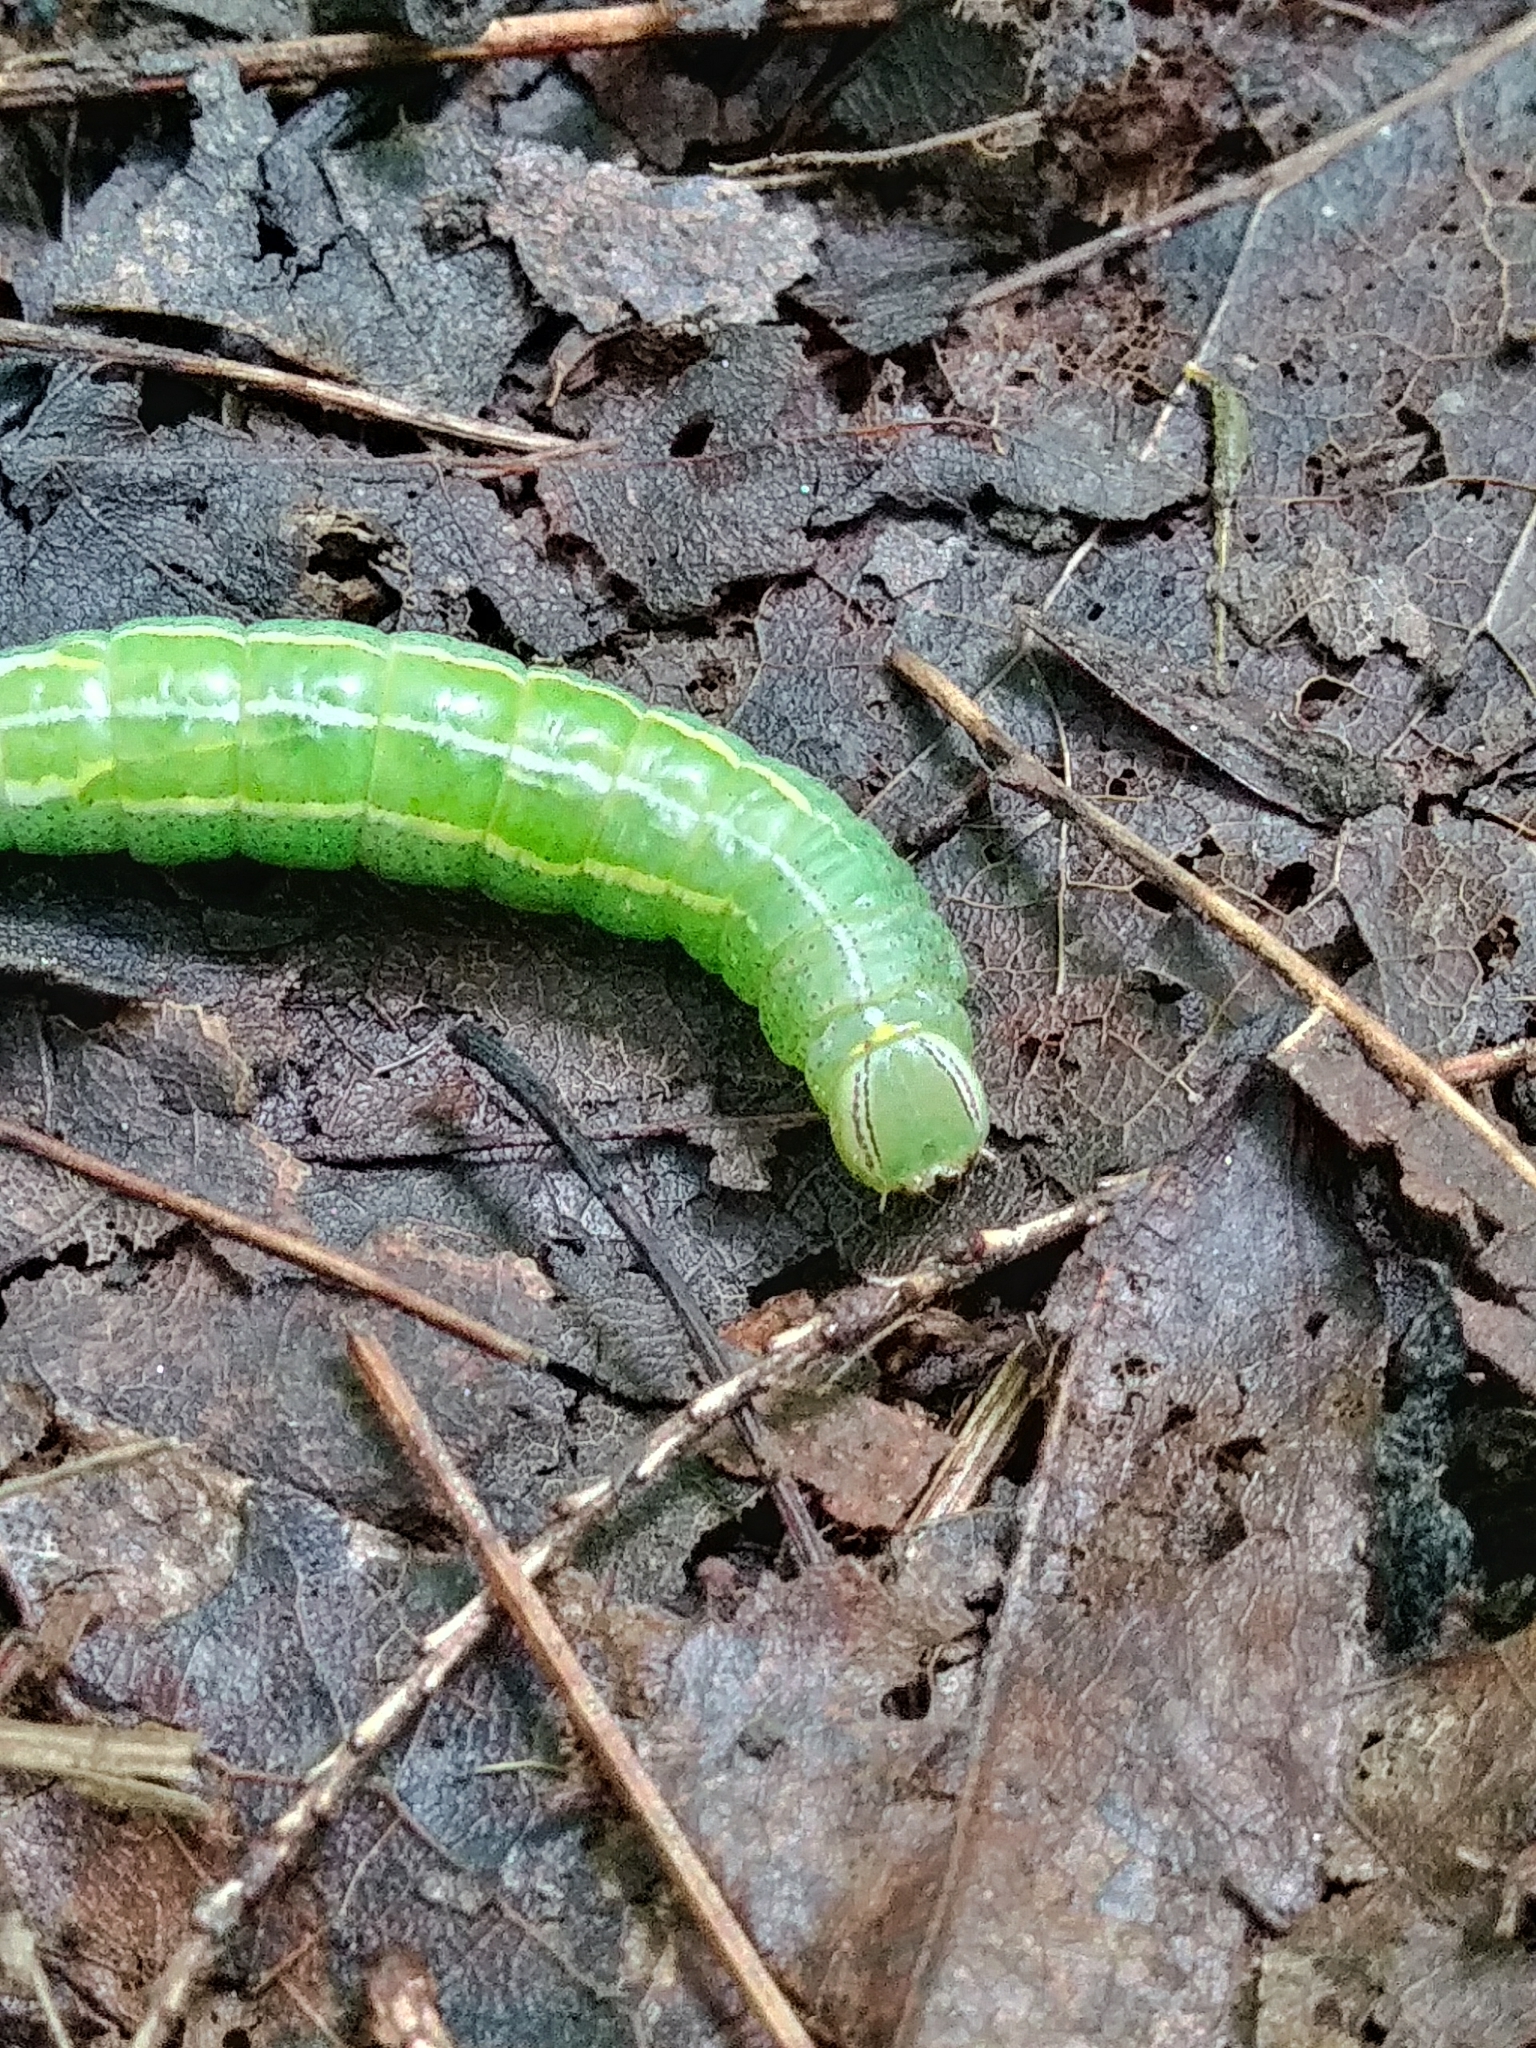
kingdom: Animalia
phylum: Arthropoda
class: Insecta
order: Lepidoptera
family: Notodontidae
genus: Disphragis
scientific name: Disphragis Cecrita guttivitta
